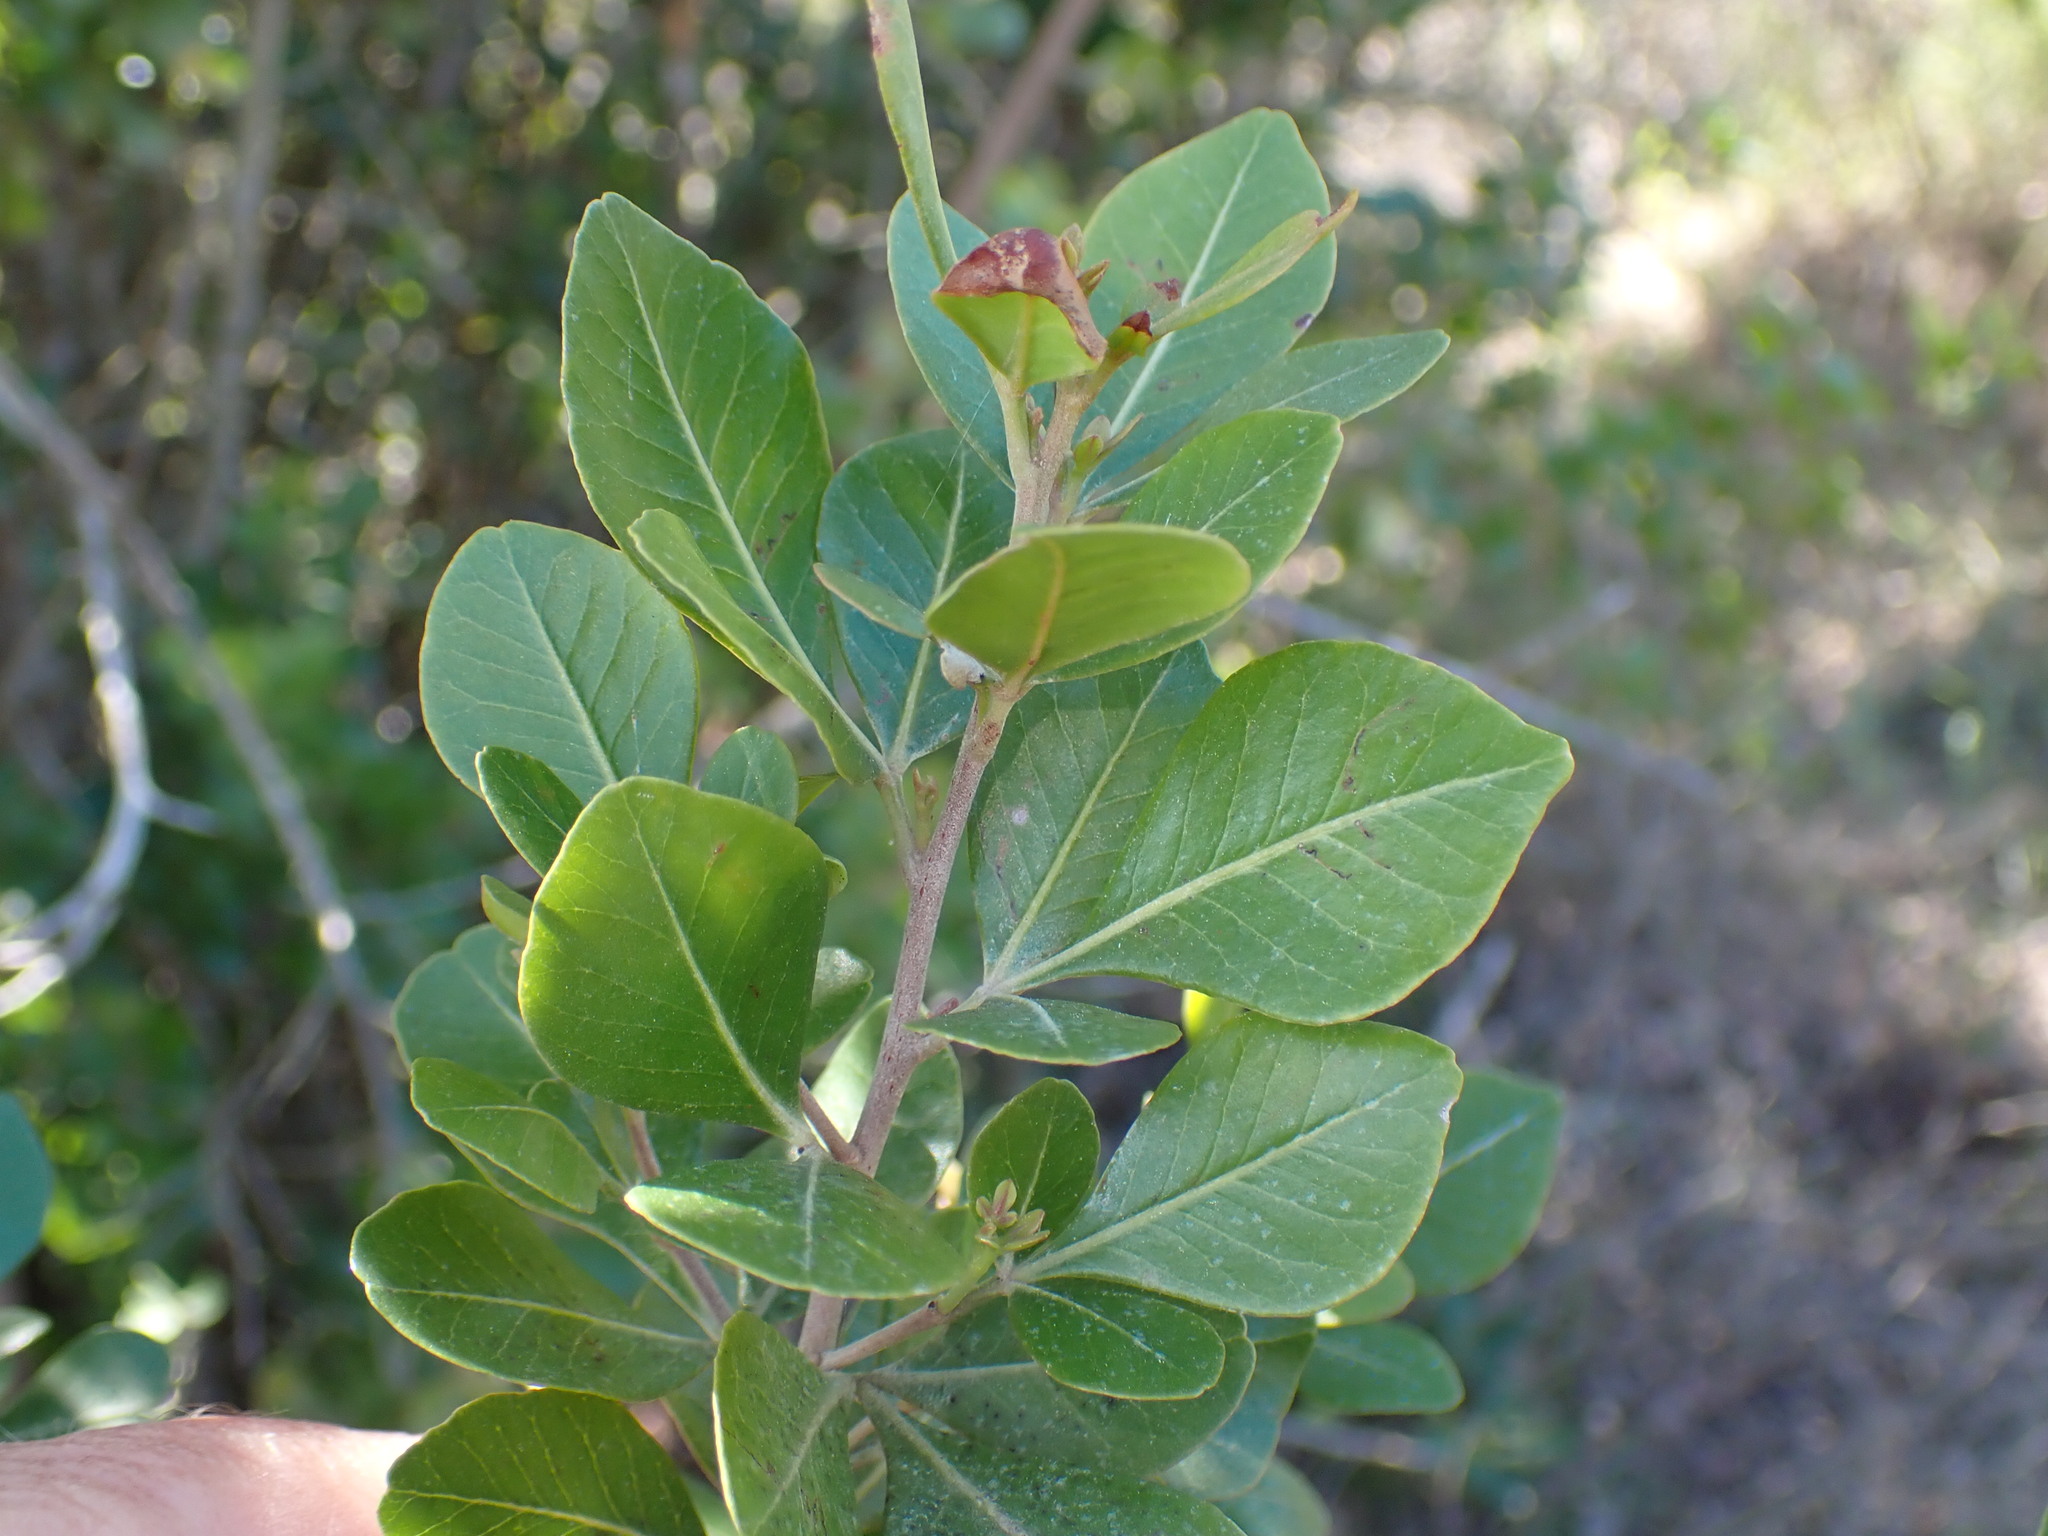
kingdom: Plantae
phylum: Tracheophyta
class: Magnoliopsida
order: Sapindales
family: Anacardiaceae
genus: Searsia
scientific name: Searsia lucida
